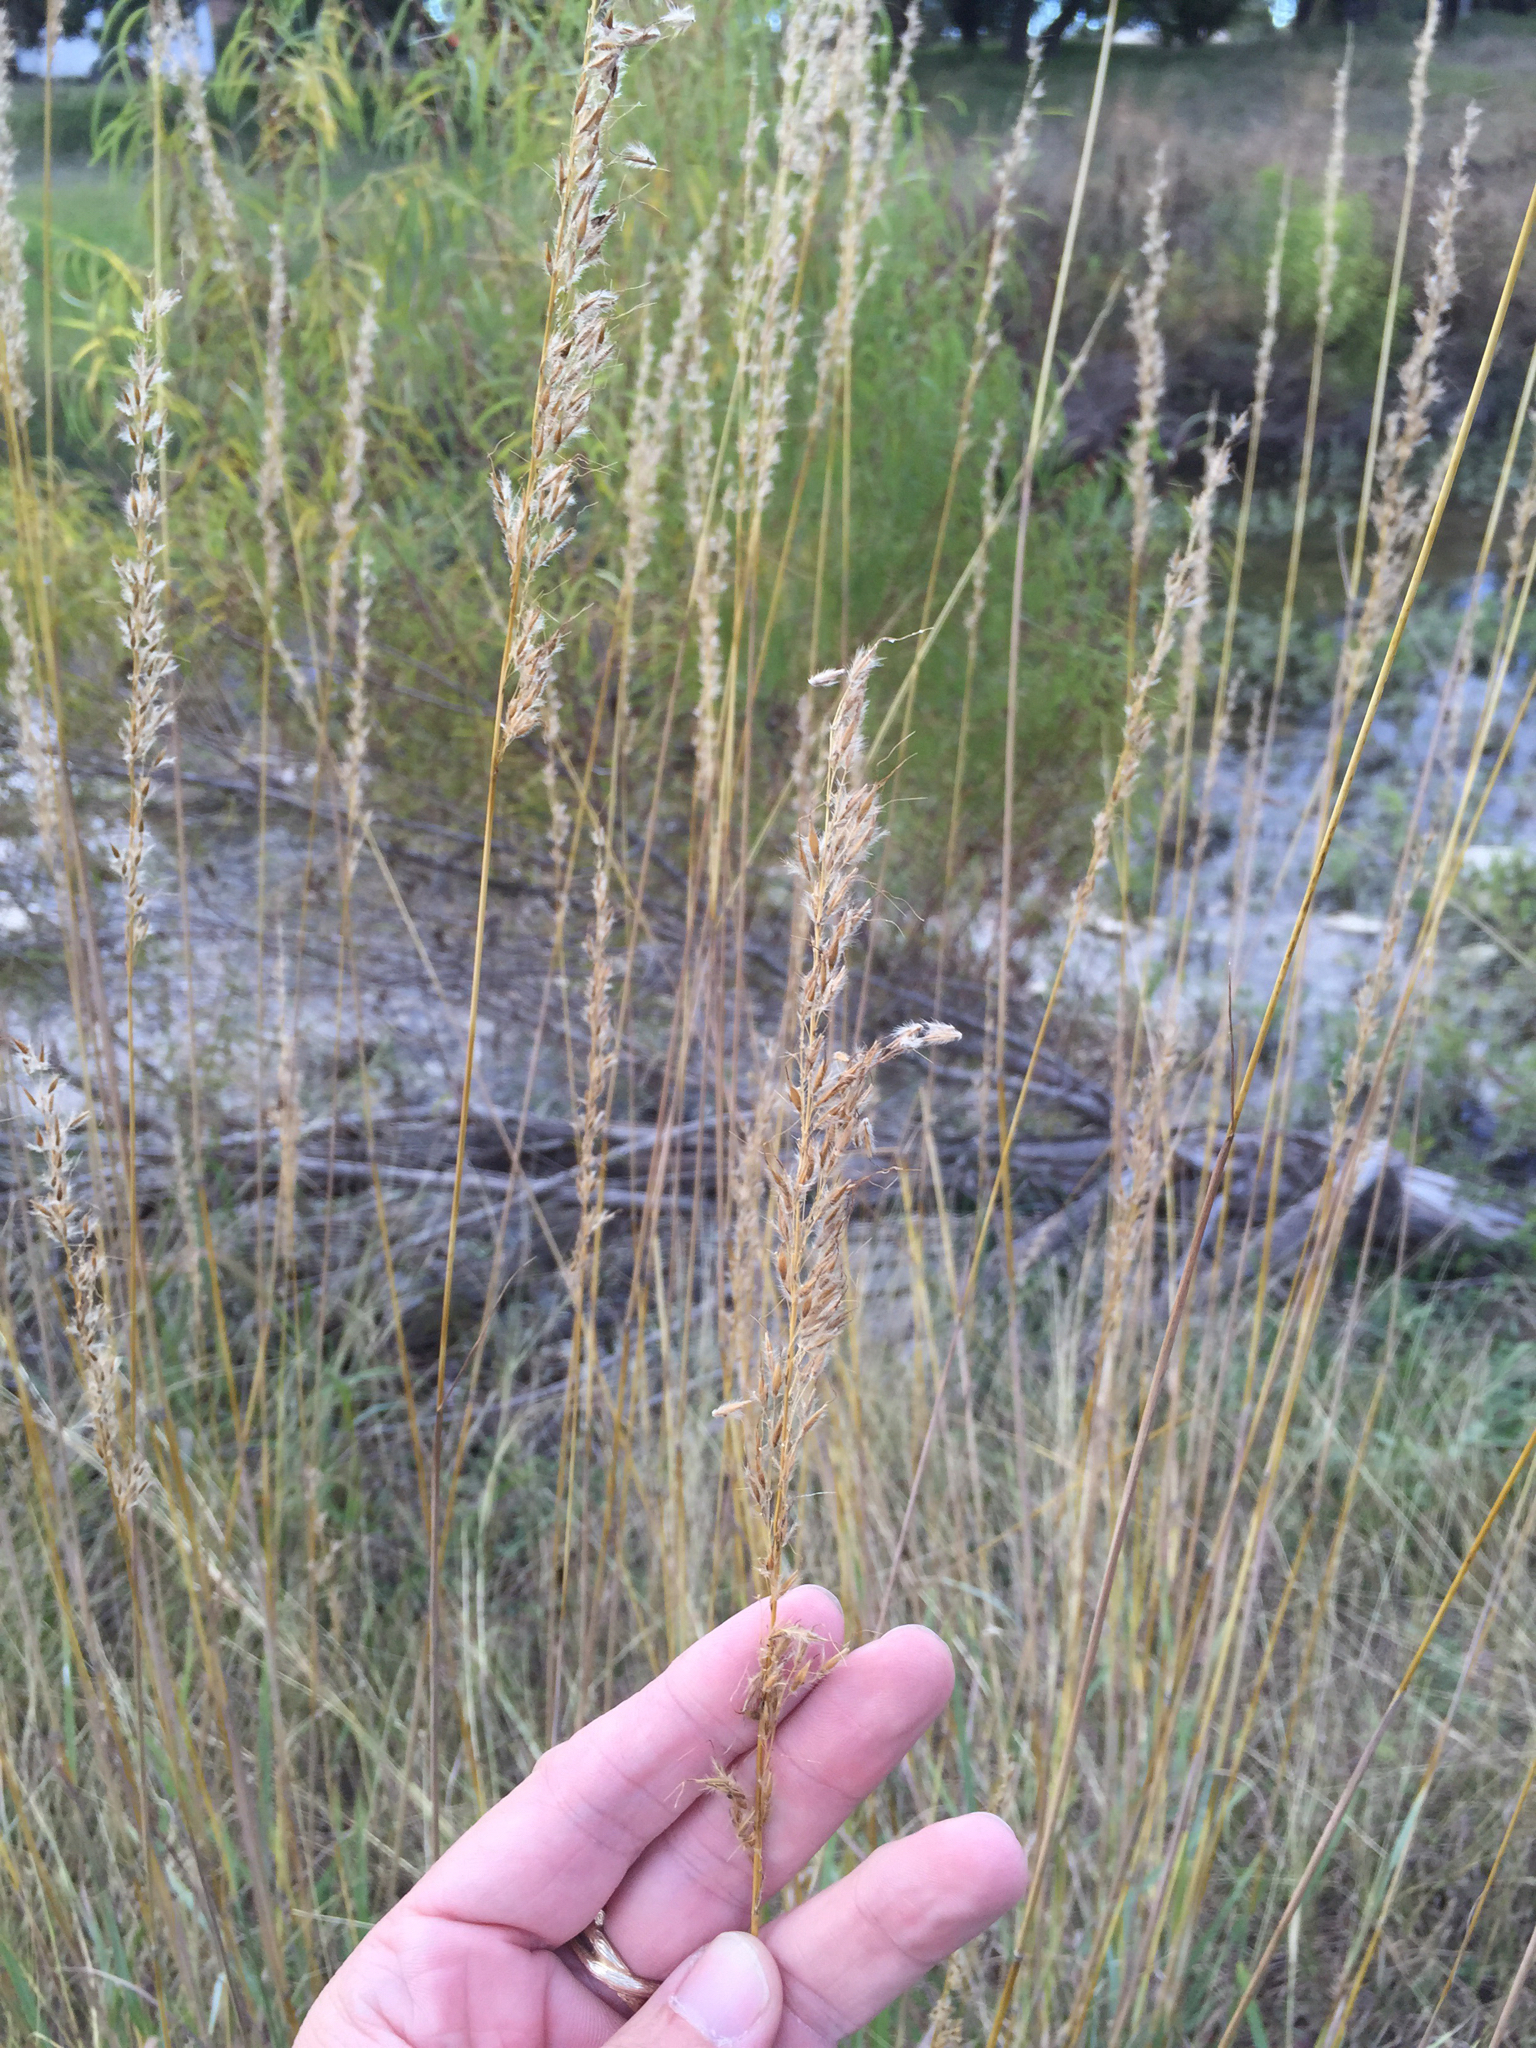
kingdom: Plantae
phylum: Tracheophyta
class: Liliopsida
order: Poales
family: Poaceae
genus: Sorghastrum
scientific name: Sorghastrum nutans
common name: Indian grass
